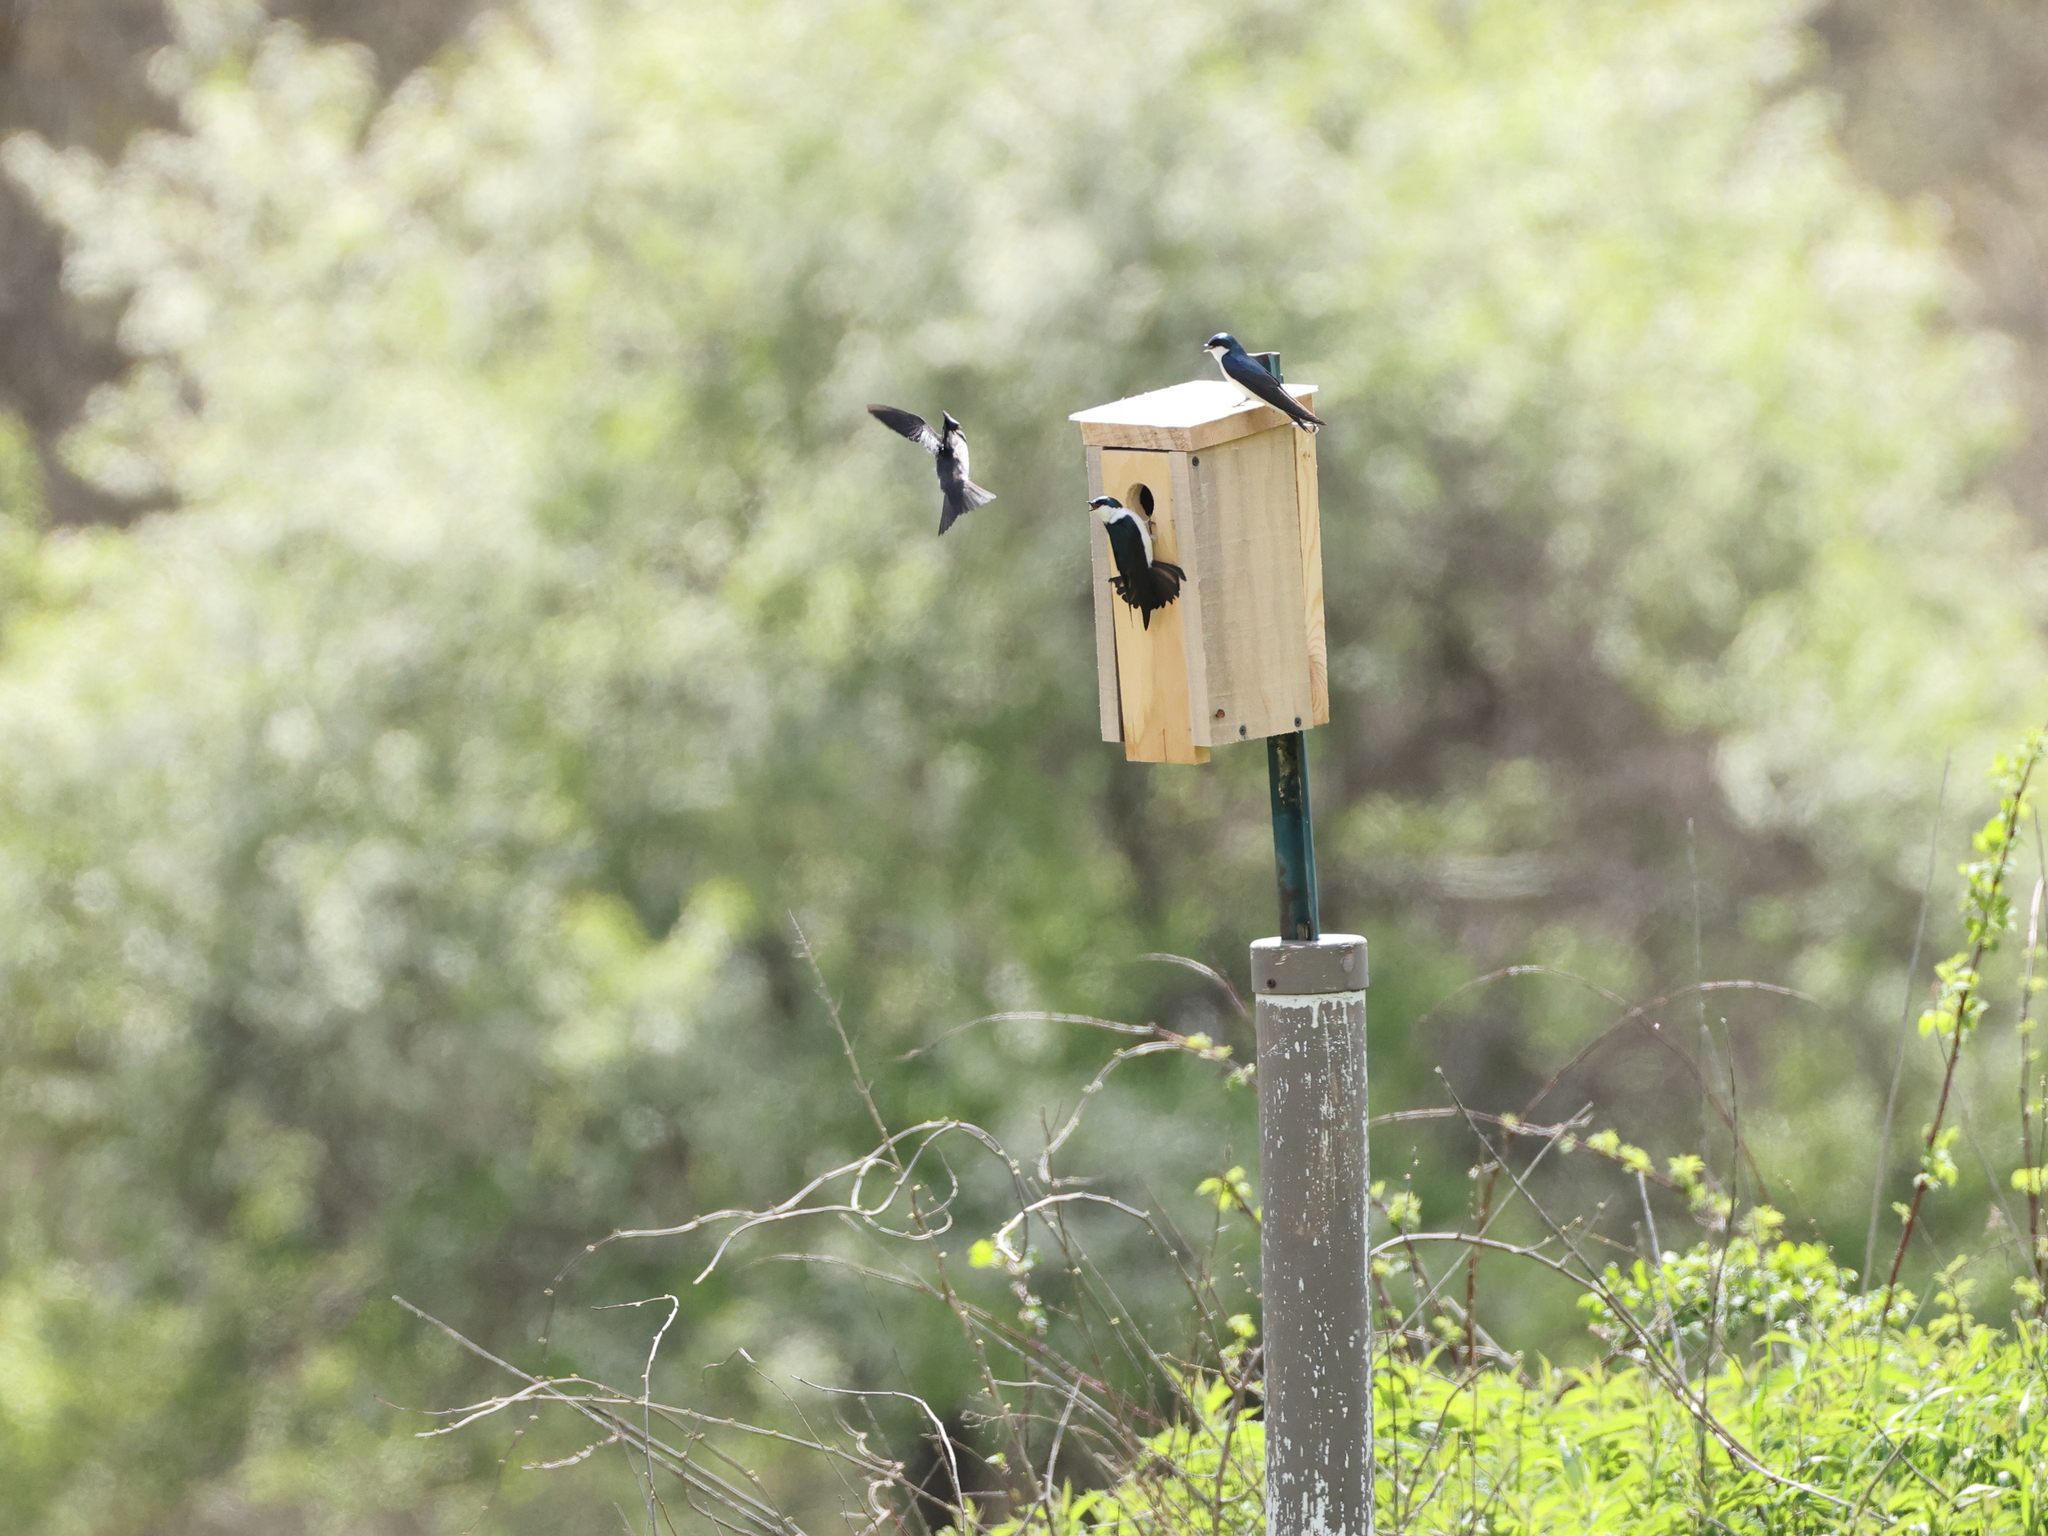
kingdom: Animalia
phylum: Chordata
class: Aves
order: Passeriformes
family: Hirundinidae
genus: Tachycineta
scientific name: Tachycineta bicolor
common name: Tree swallow
